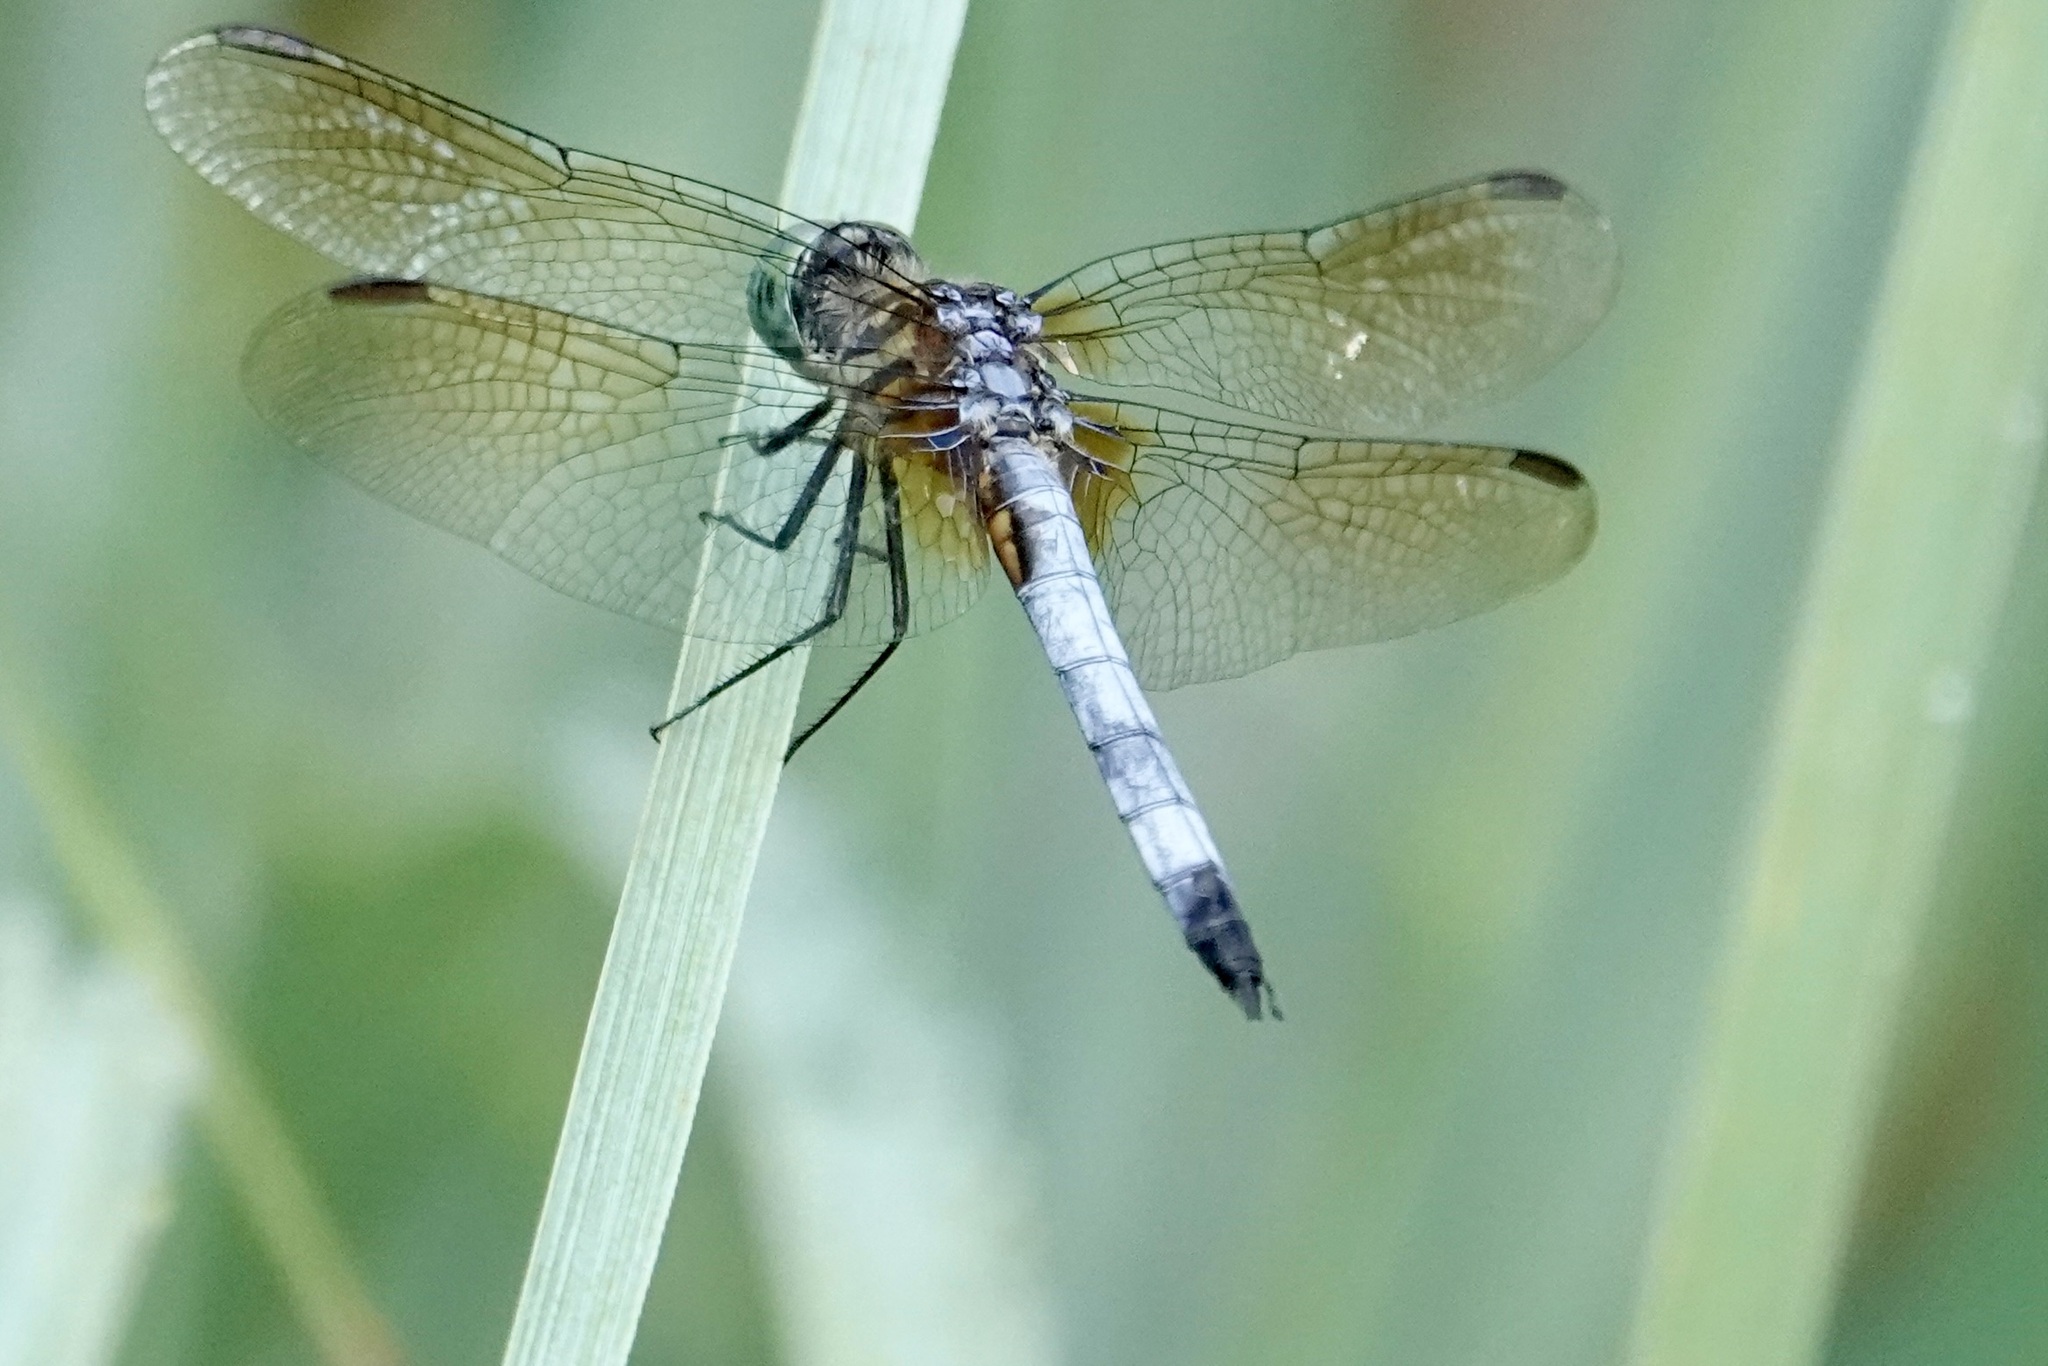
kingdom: Animalia
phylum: Arthropoda
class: Insecta
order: Odonata
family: Libellulidae
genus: Pachydiplax
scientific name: Pachydiplax longipennis
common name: Blue dasher
